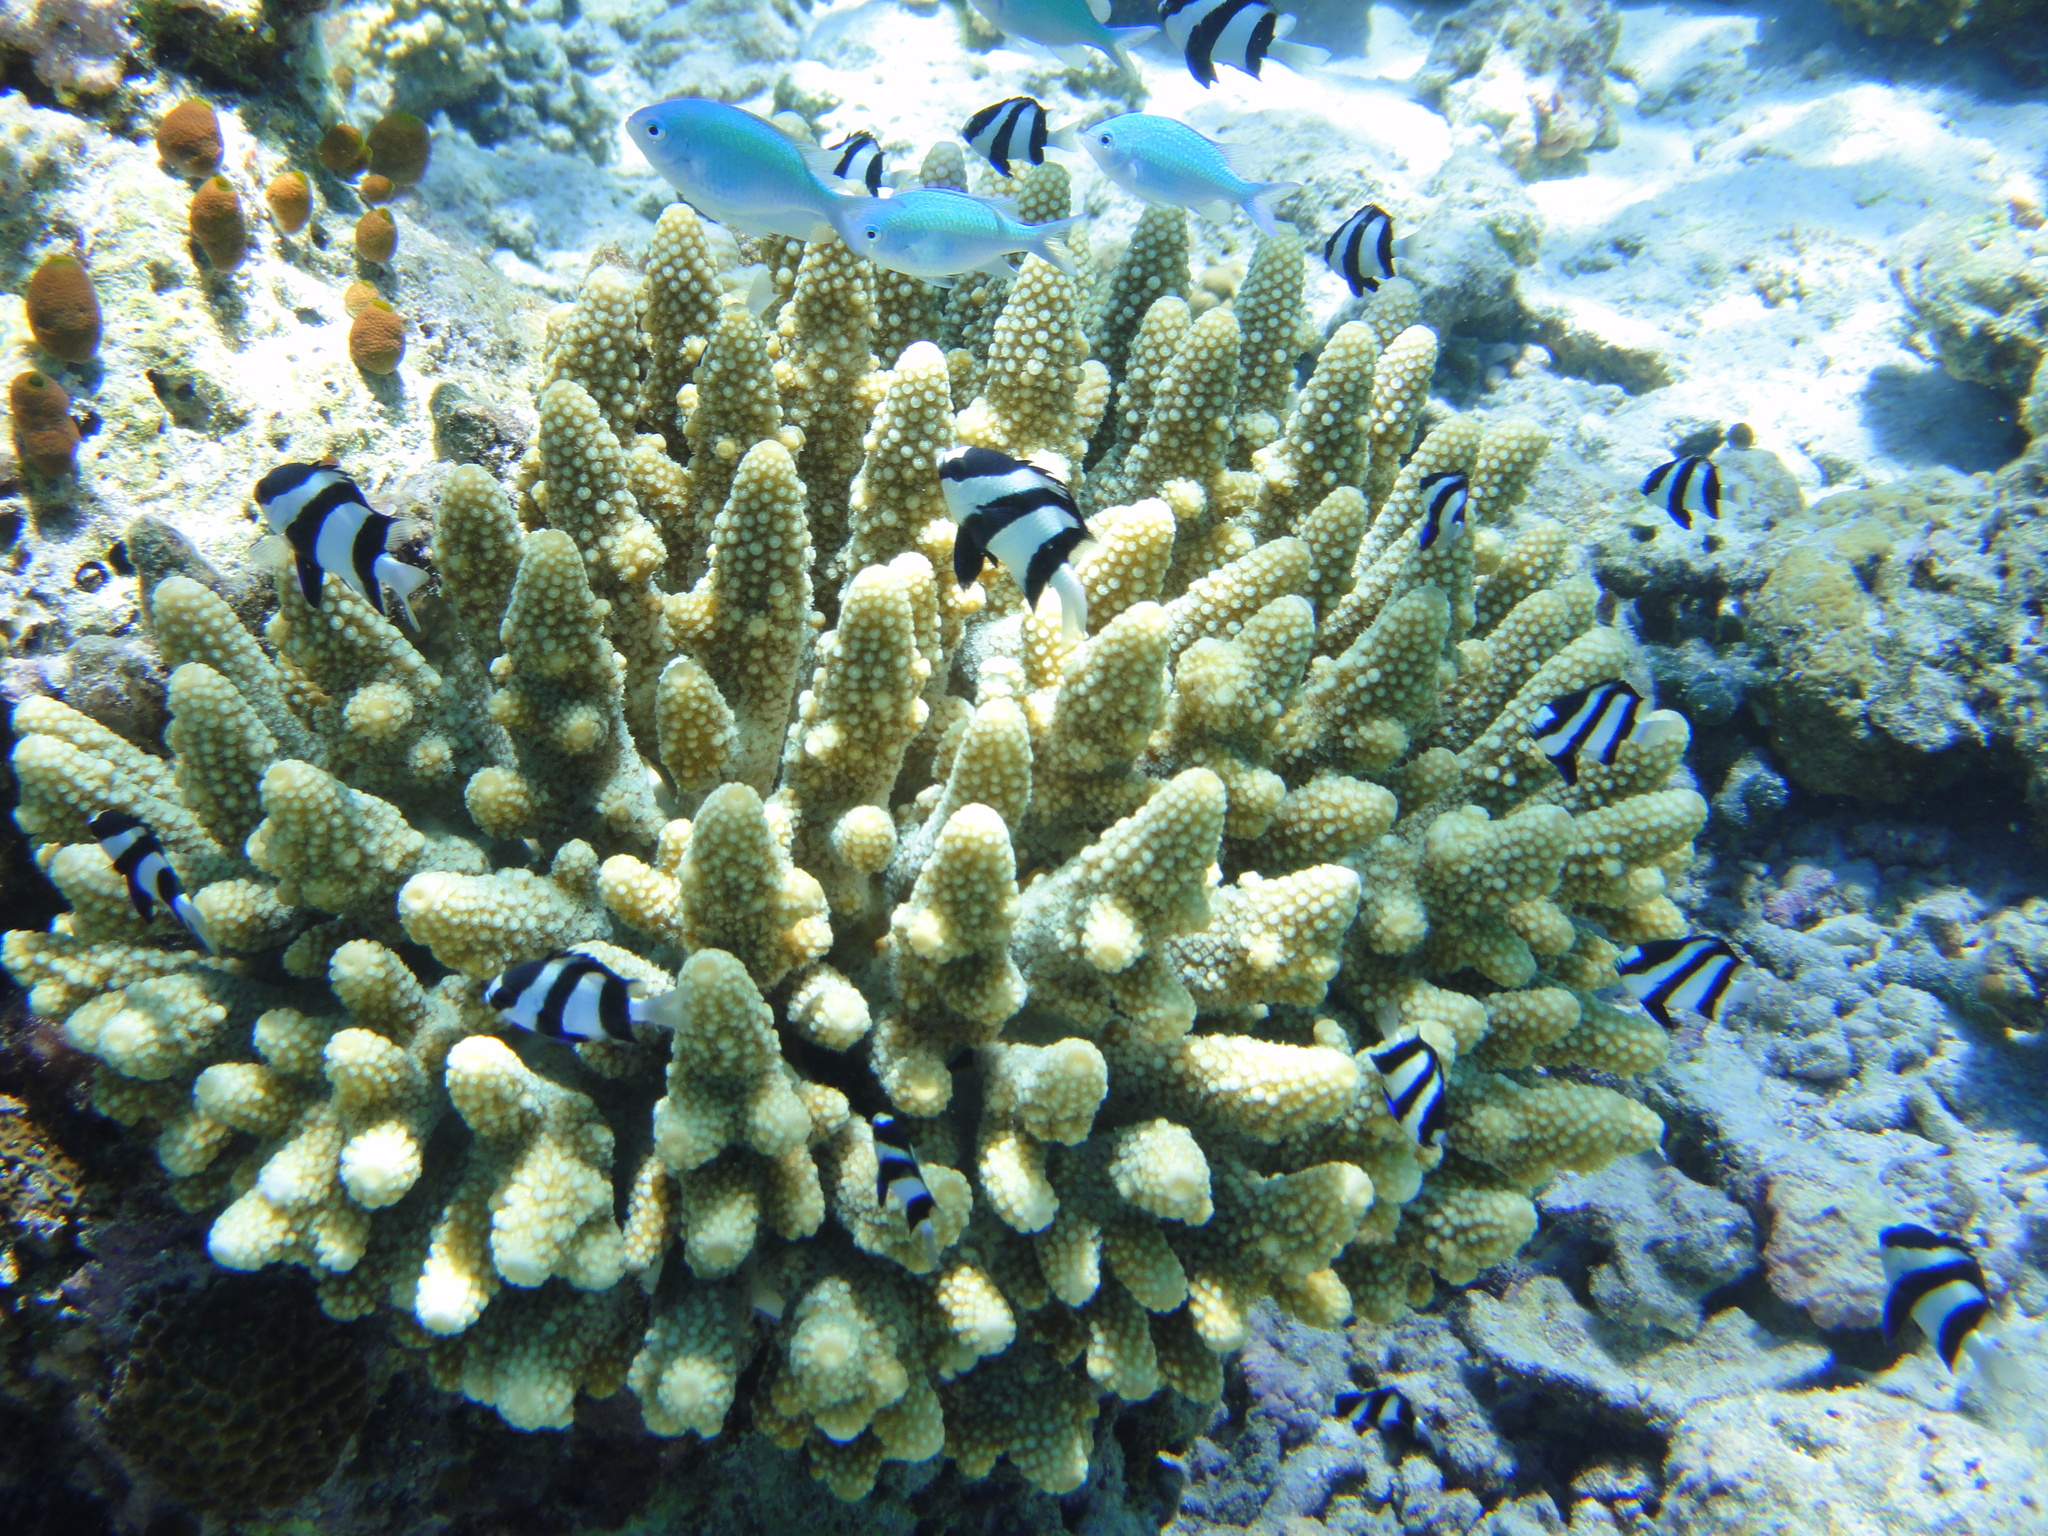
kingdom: Animalia
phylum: Chordata
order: Perciformes
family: Pomacentridae
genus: Dascyllus
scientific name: Dascyllus abudafur
